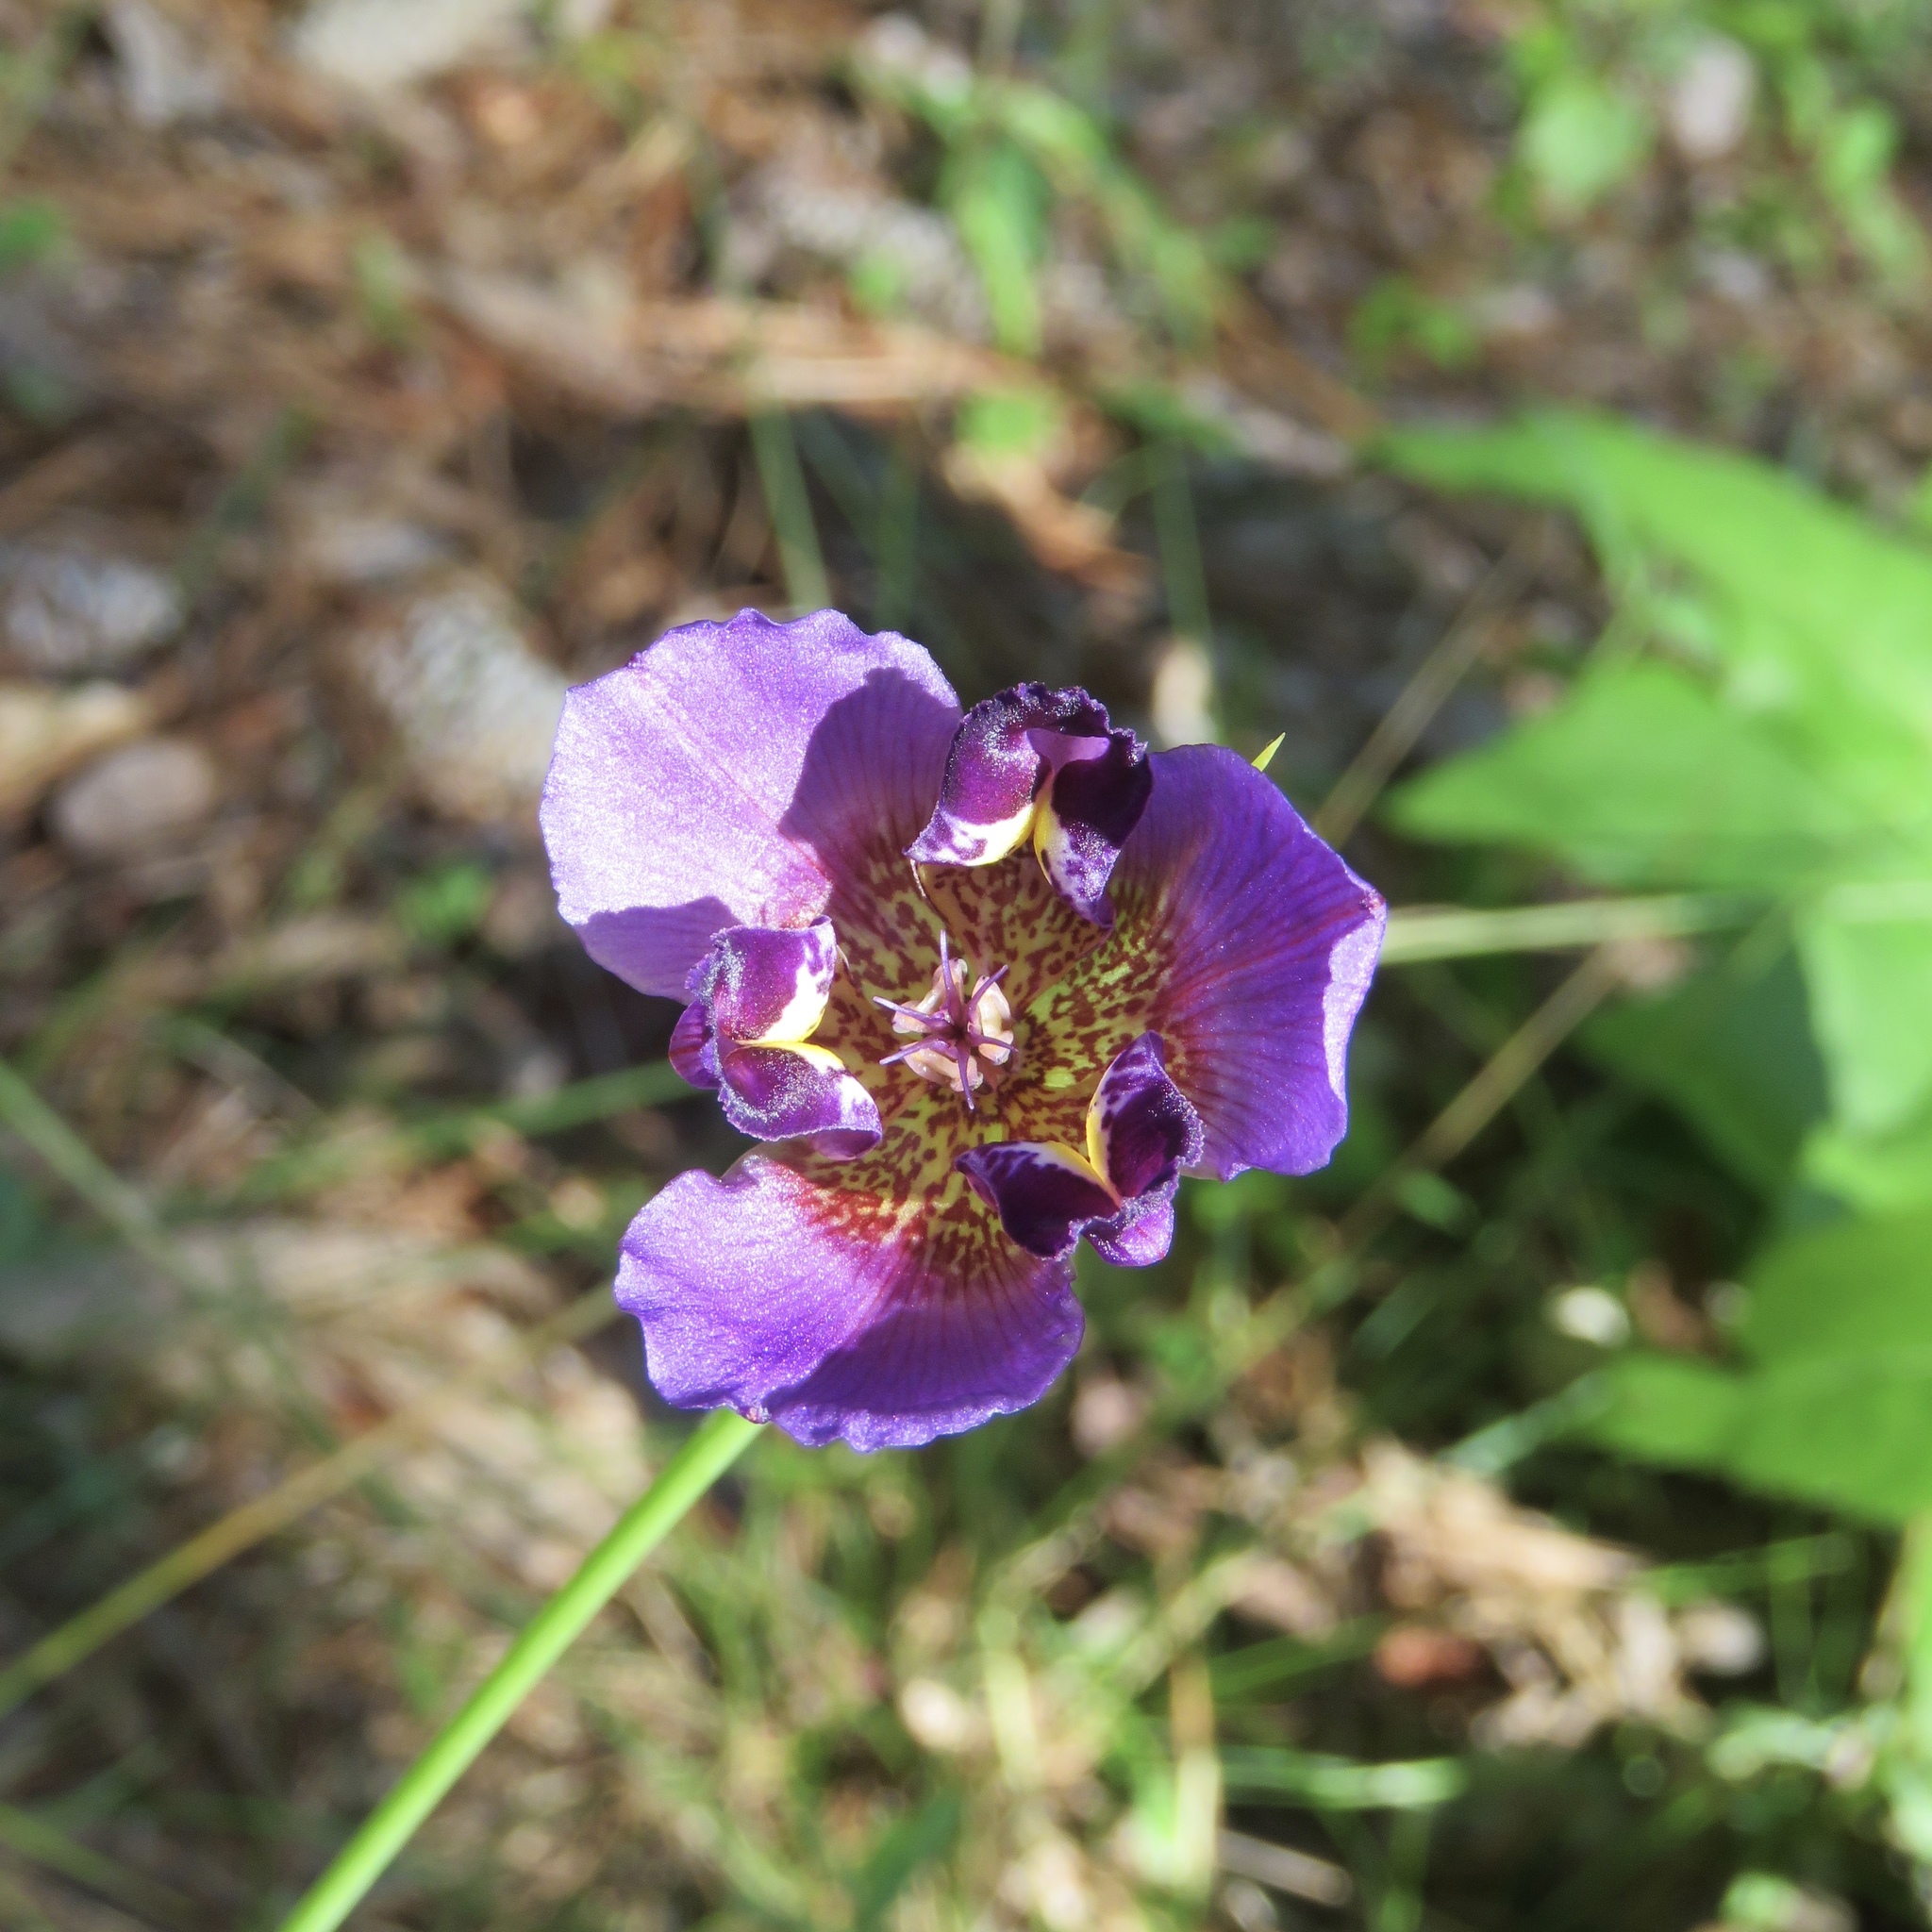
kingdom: Plantae
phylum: Tracheophyta
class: Liliopsida
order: Asparagales
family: Iridaceae
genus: Alophia
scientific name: Alophia drummondii
